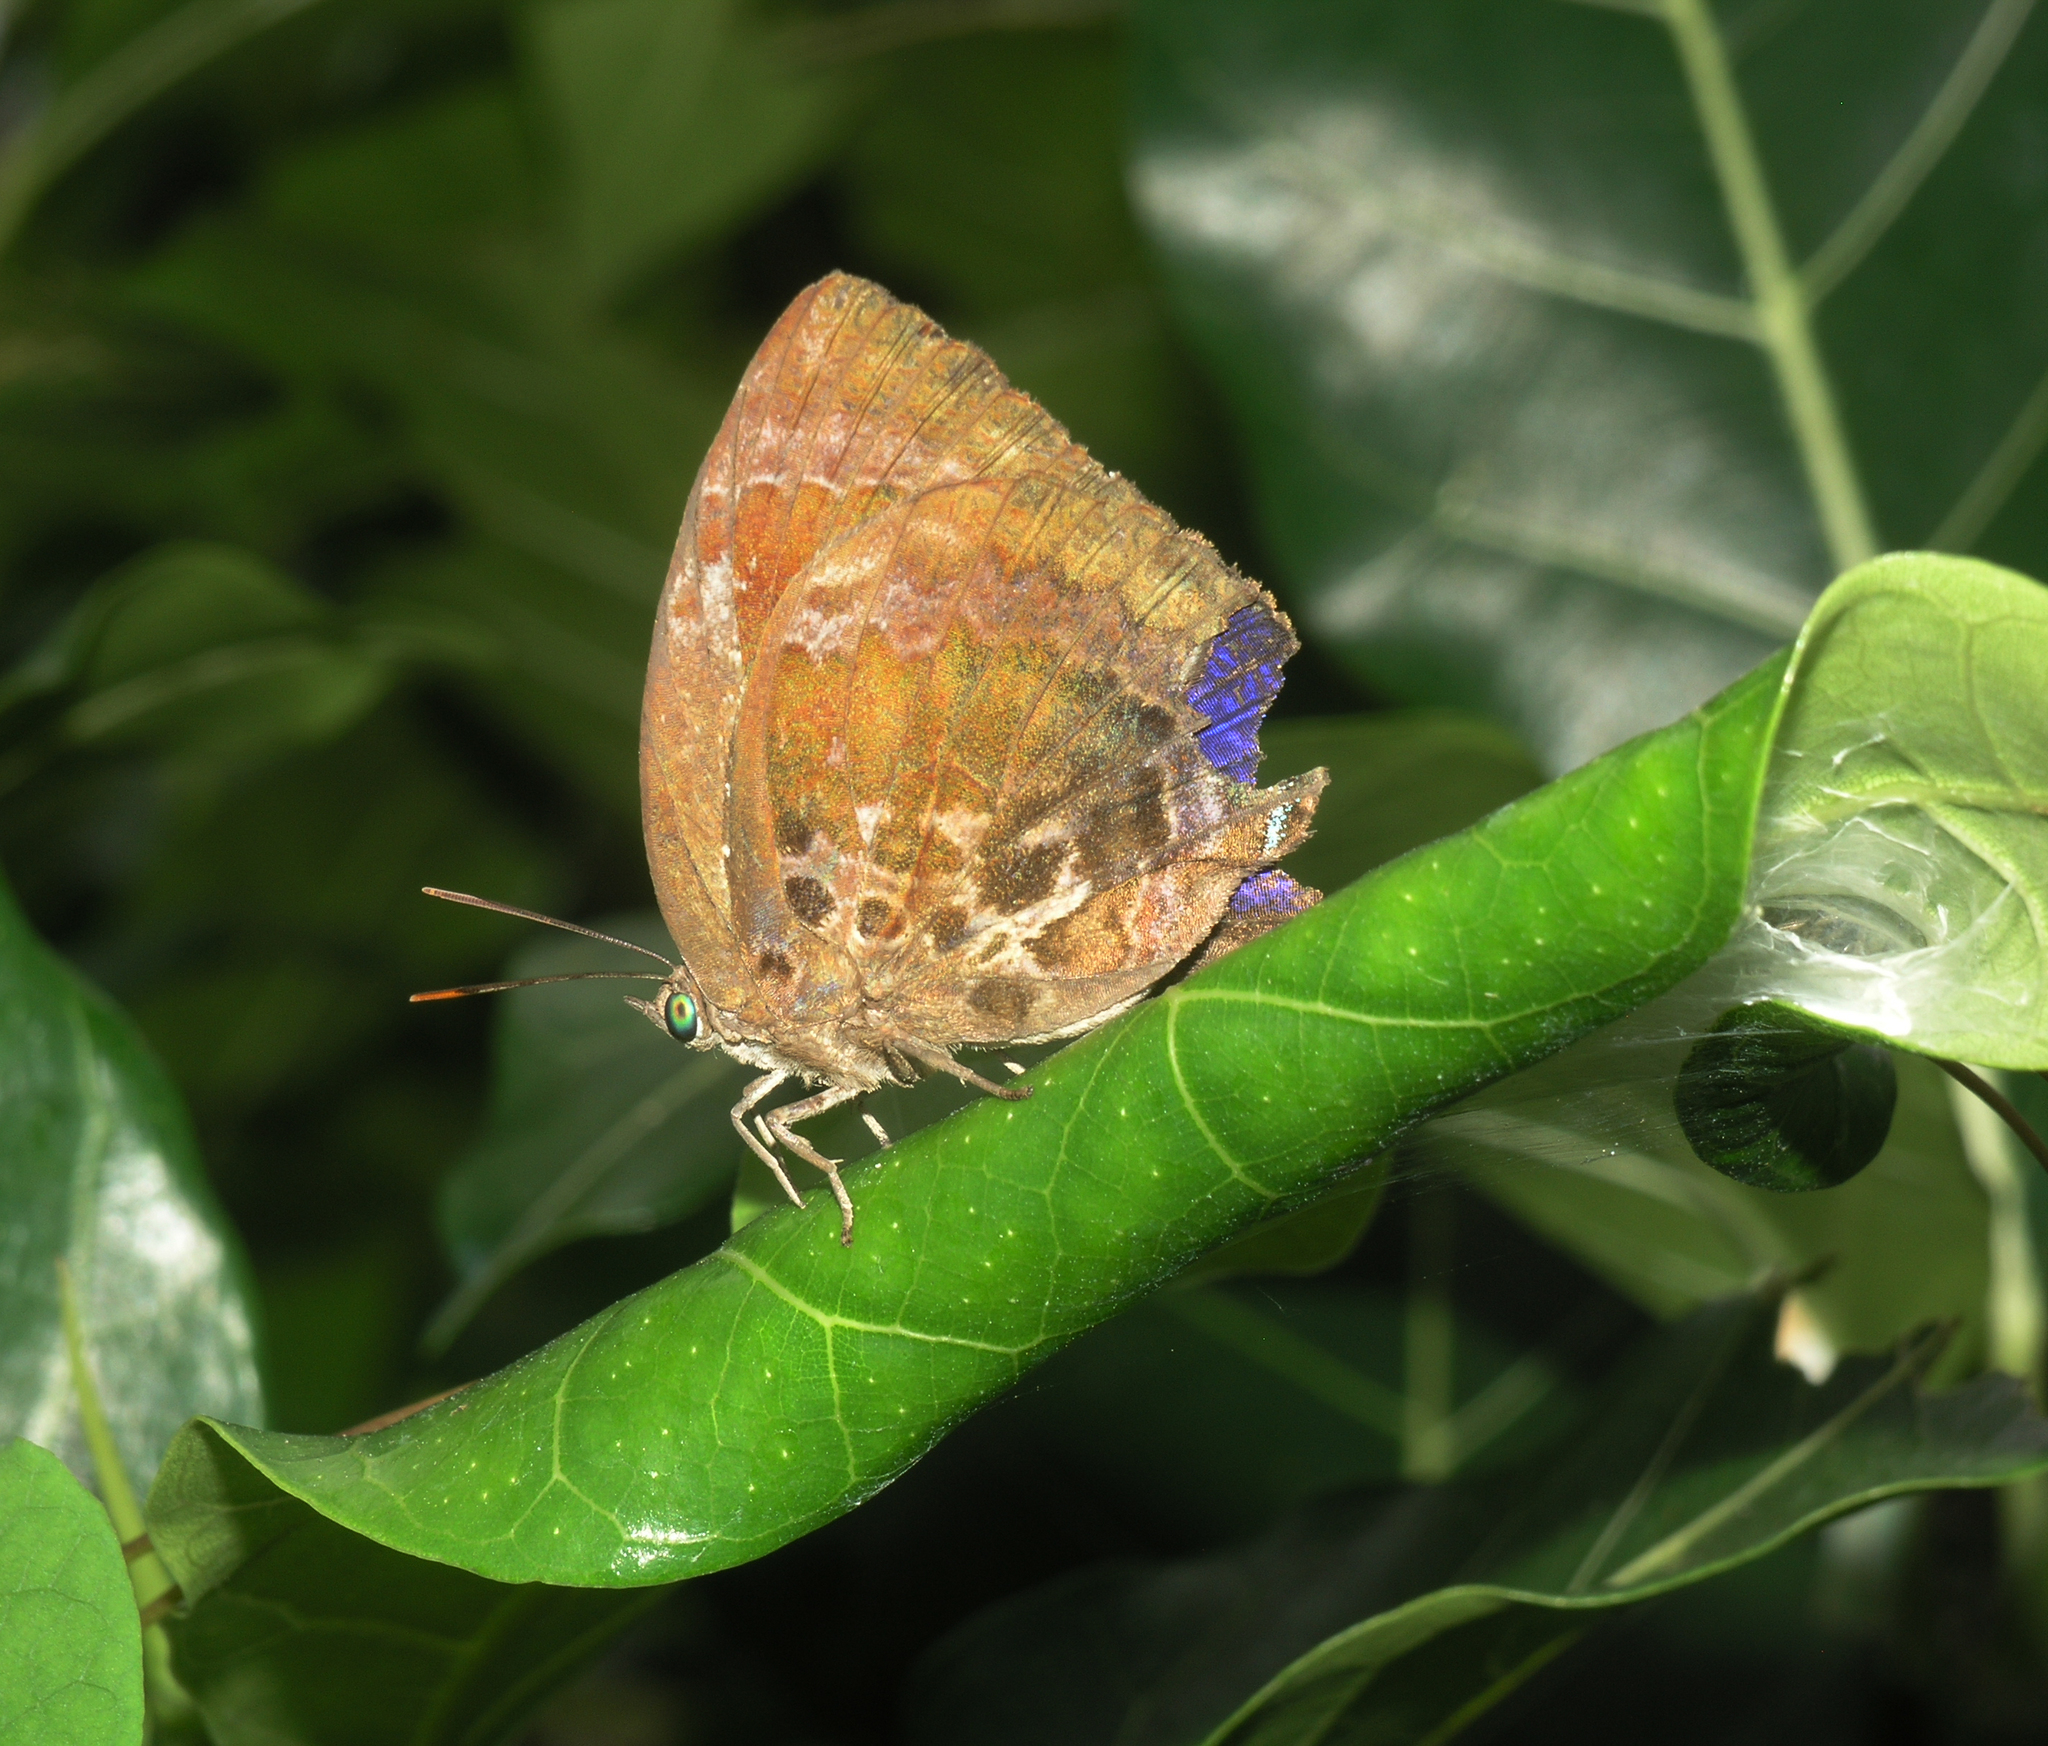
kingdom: Animalia
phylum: Arthropoda
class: Insecta
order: Lepidoptera
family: Lycaenidae
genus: Arhopala
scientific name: Arhopala centaurus
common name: Dull oak-blue
